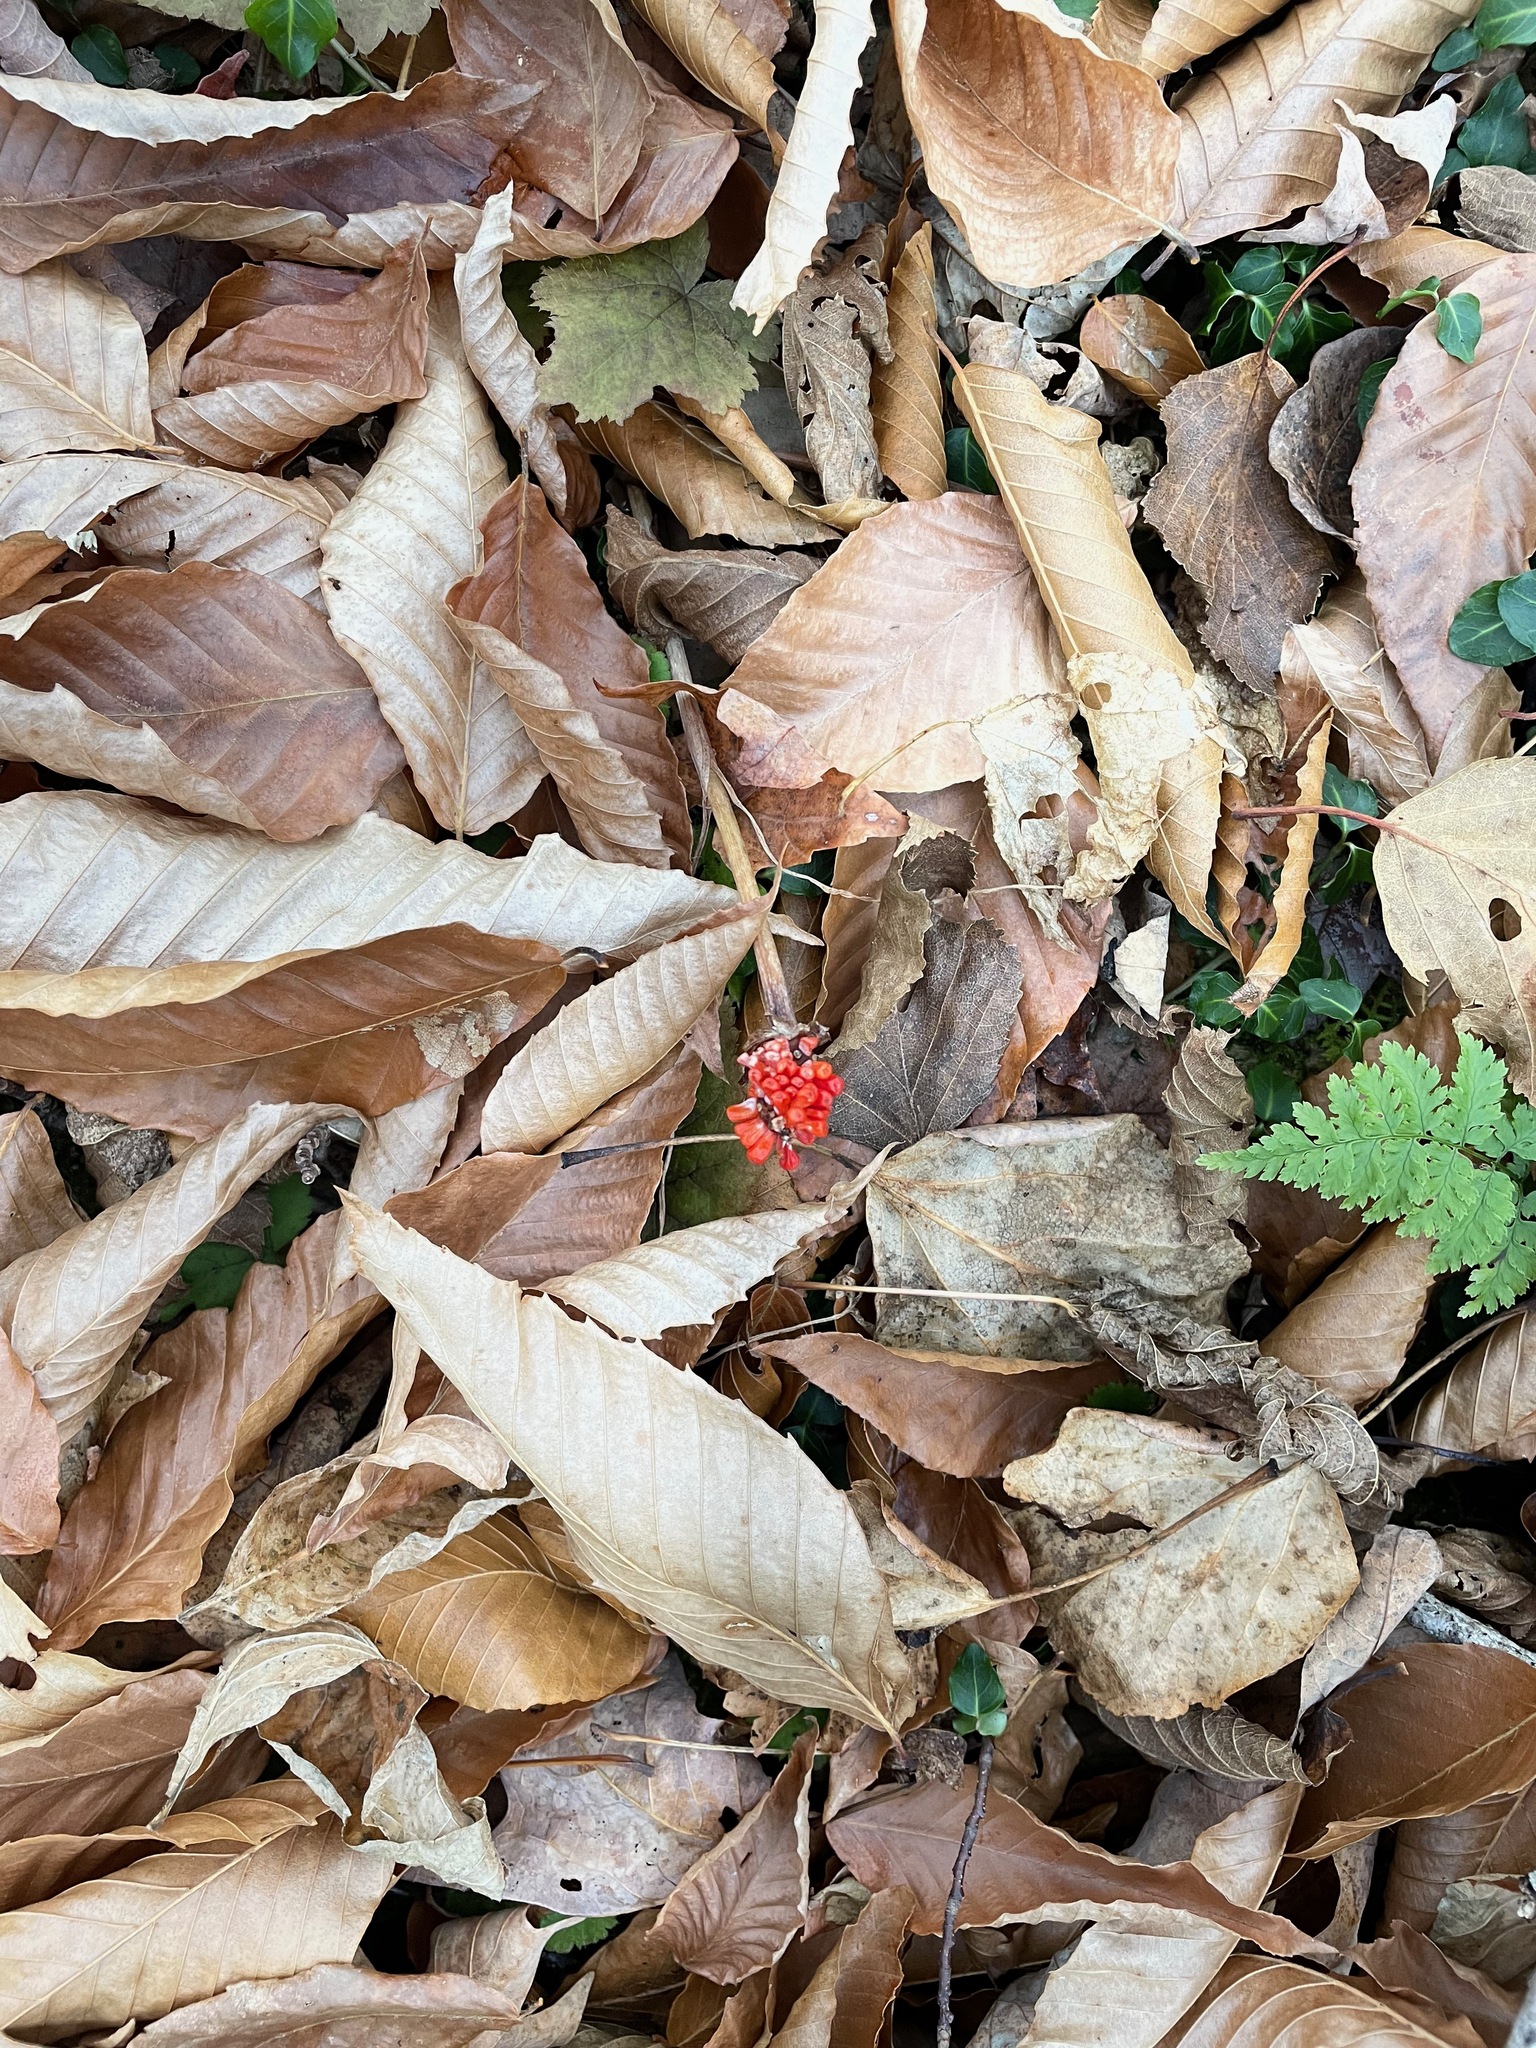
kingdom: Plantae
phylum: Tracheophyta
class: Liliopsida
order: Alismatales
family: Araceae
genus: Arisaema
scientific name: Arisaema
